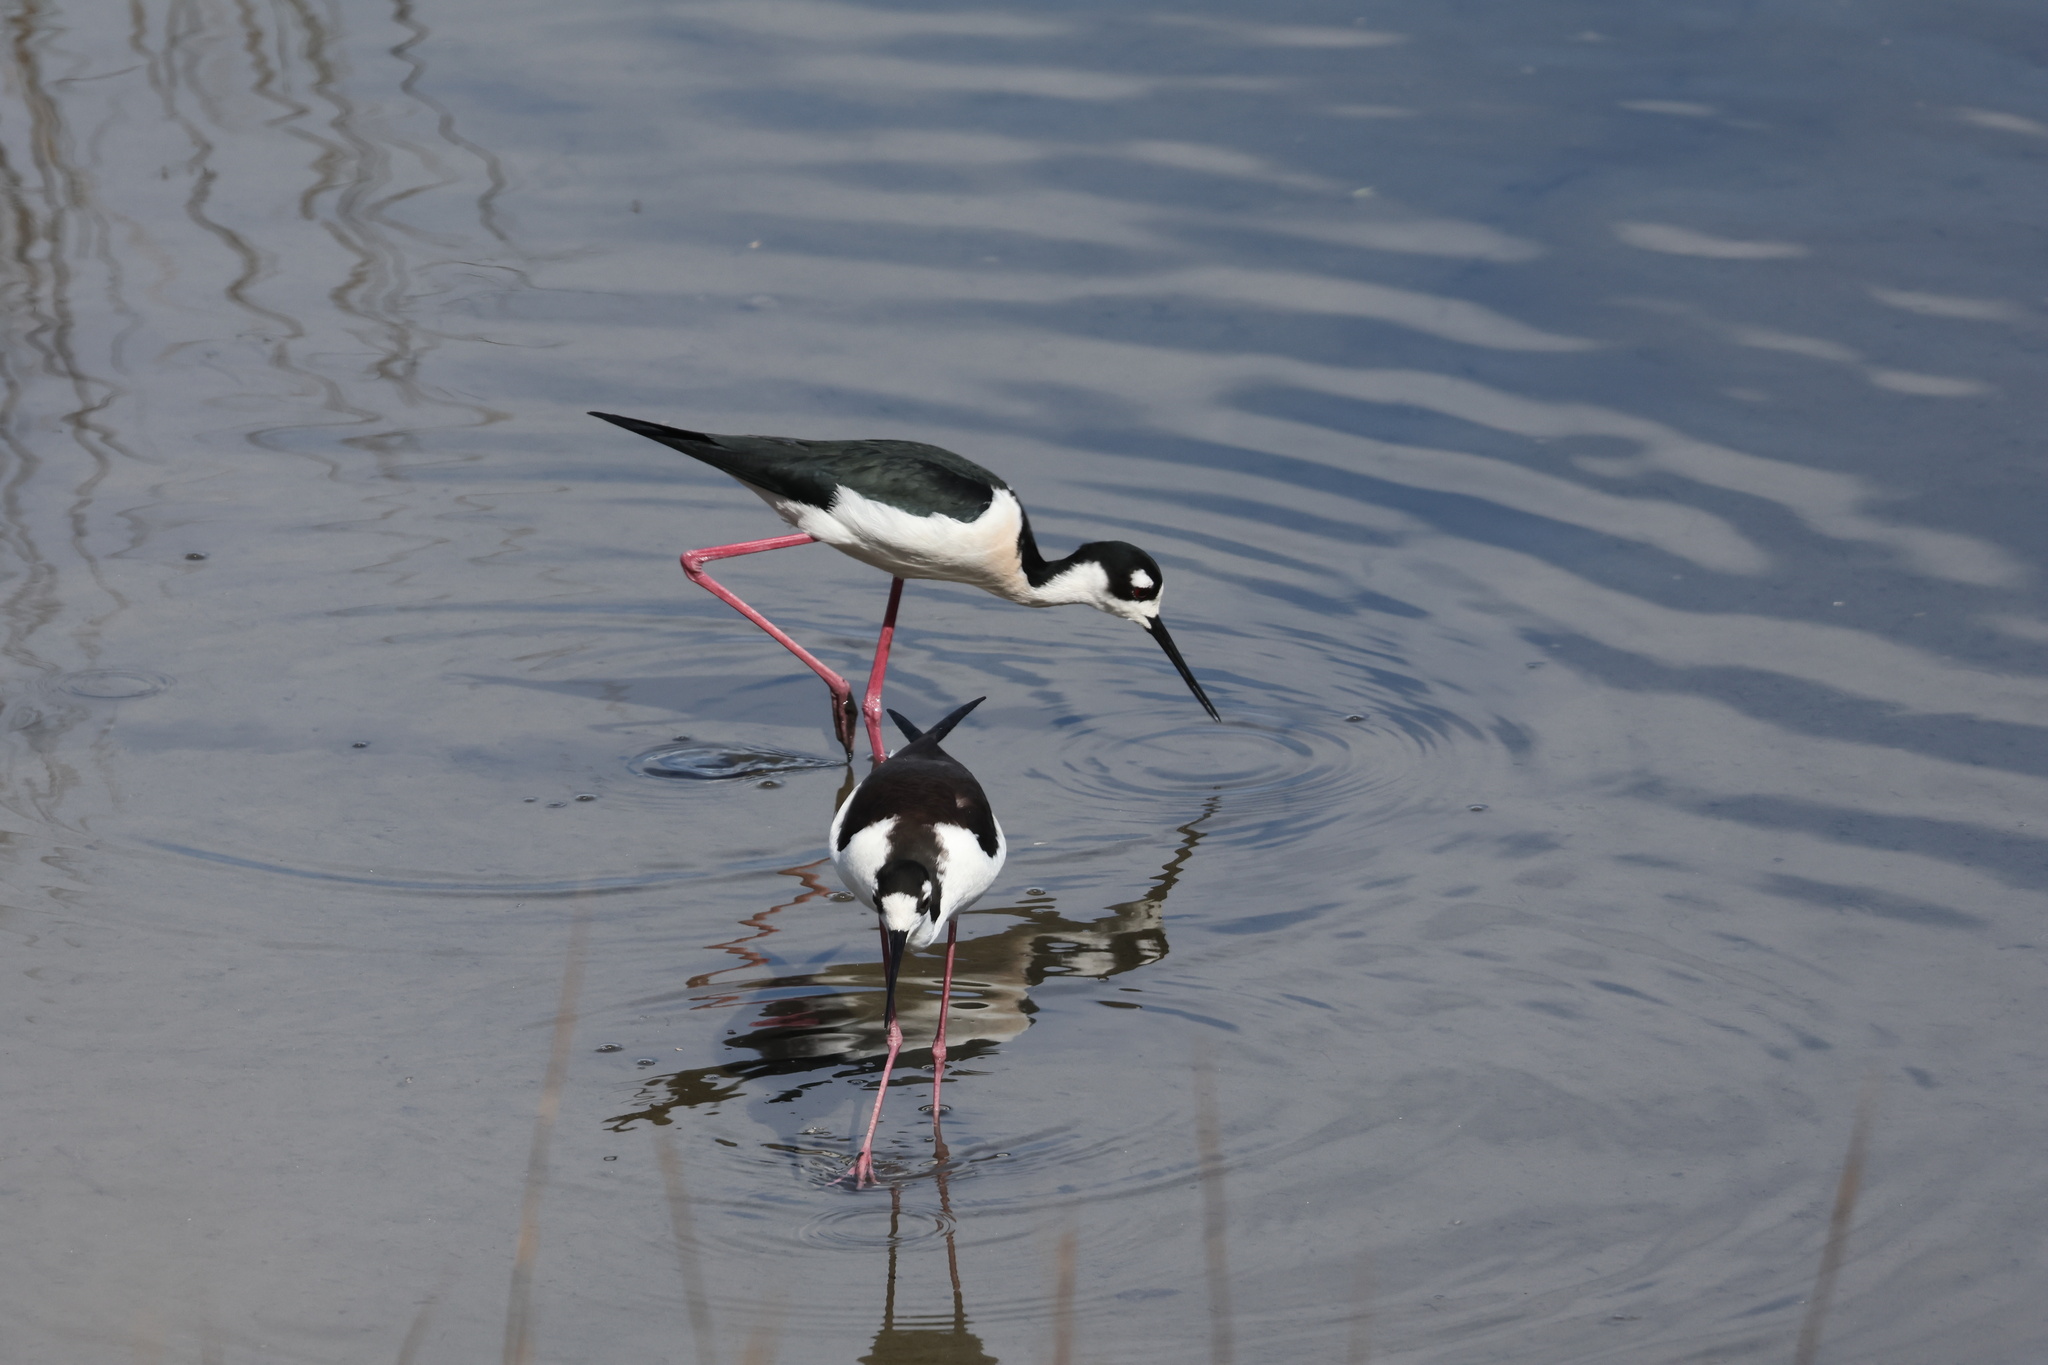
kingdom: Animalia
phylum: Chordata
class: Aves
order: Charadriiformes
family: Recurvirostridae
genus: Himantopus
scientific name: Himantopus mexicanus
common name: Black-necked stilt
